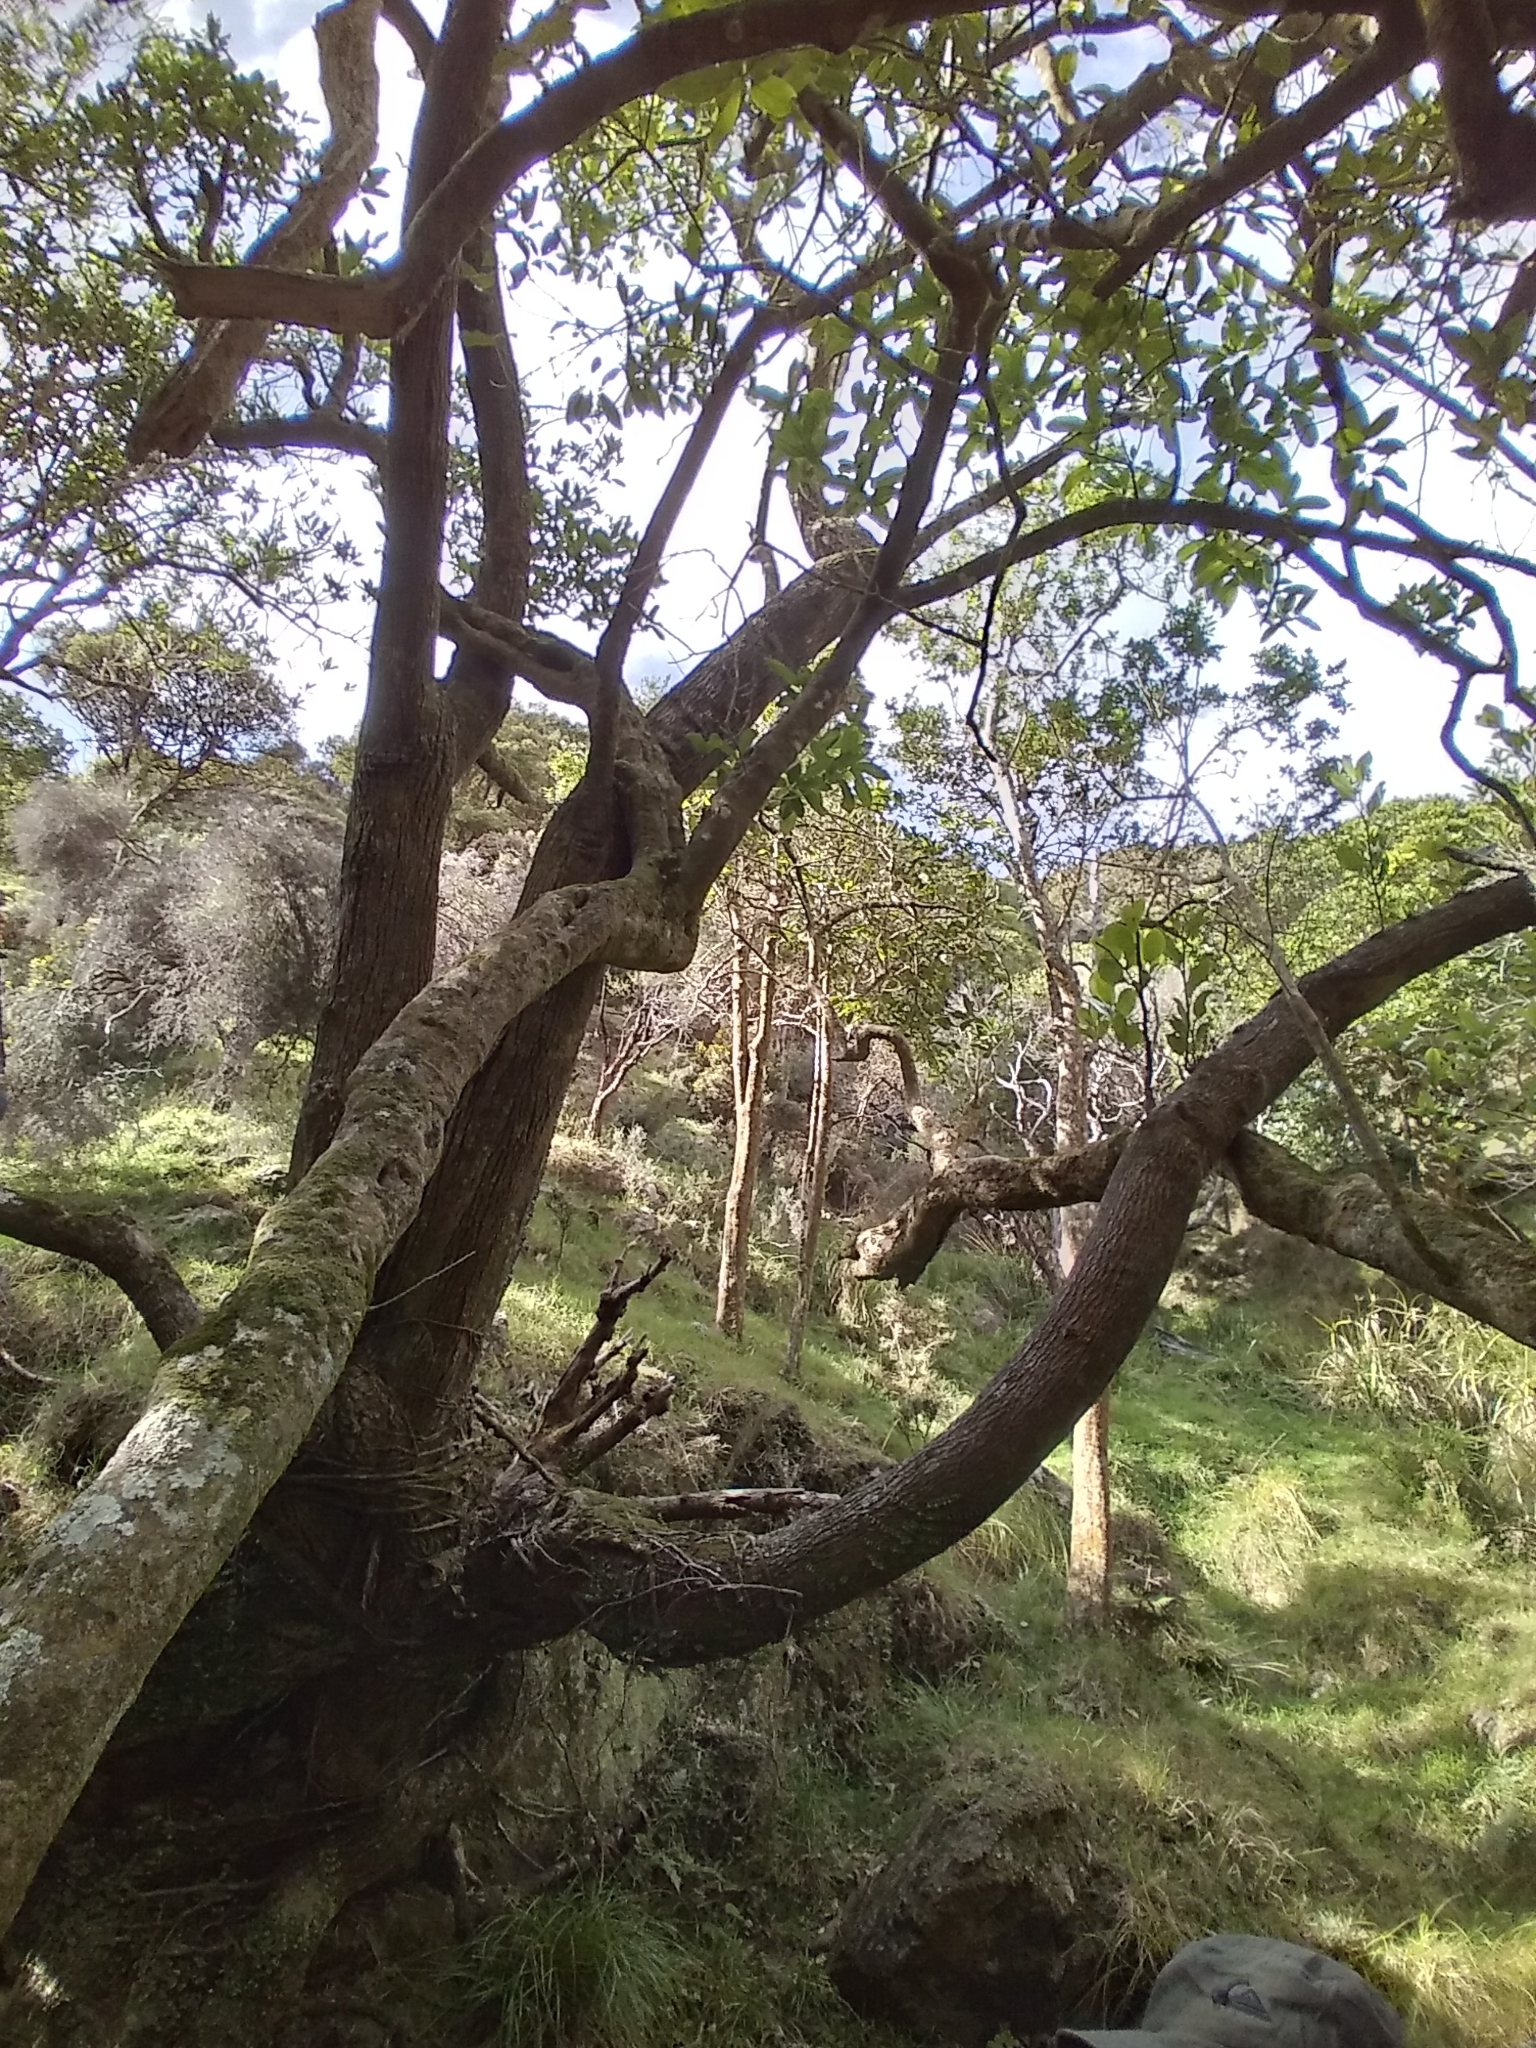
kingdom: Plantae
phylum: Tracheophyta
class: Magnoliopsida
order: Apiales
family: Griseliniaceae
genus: Griselinia
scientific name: Griselinia lucida
